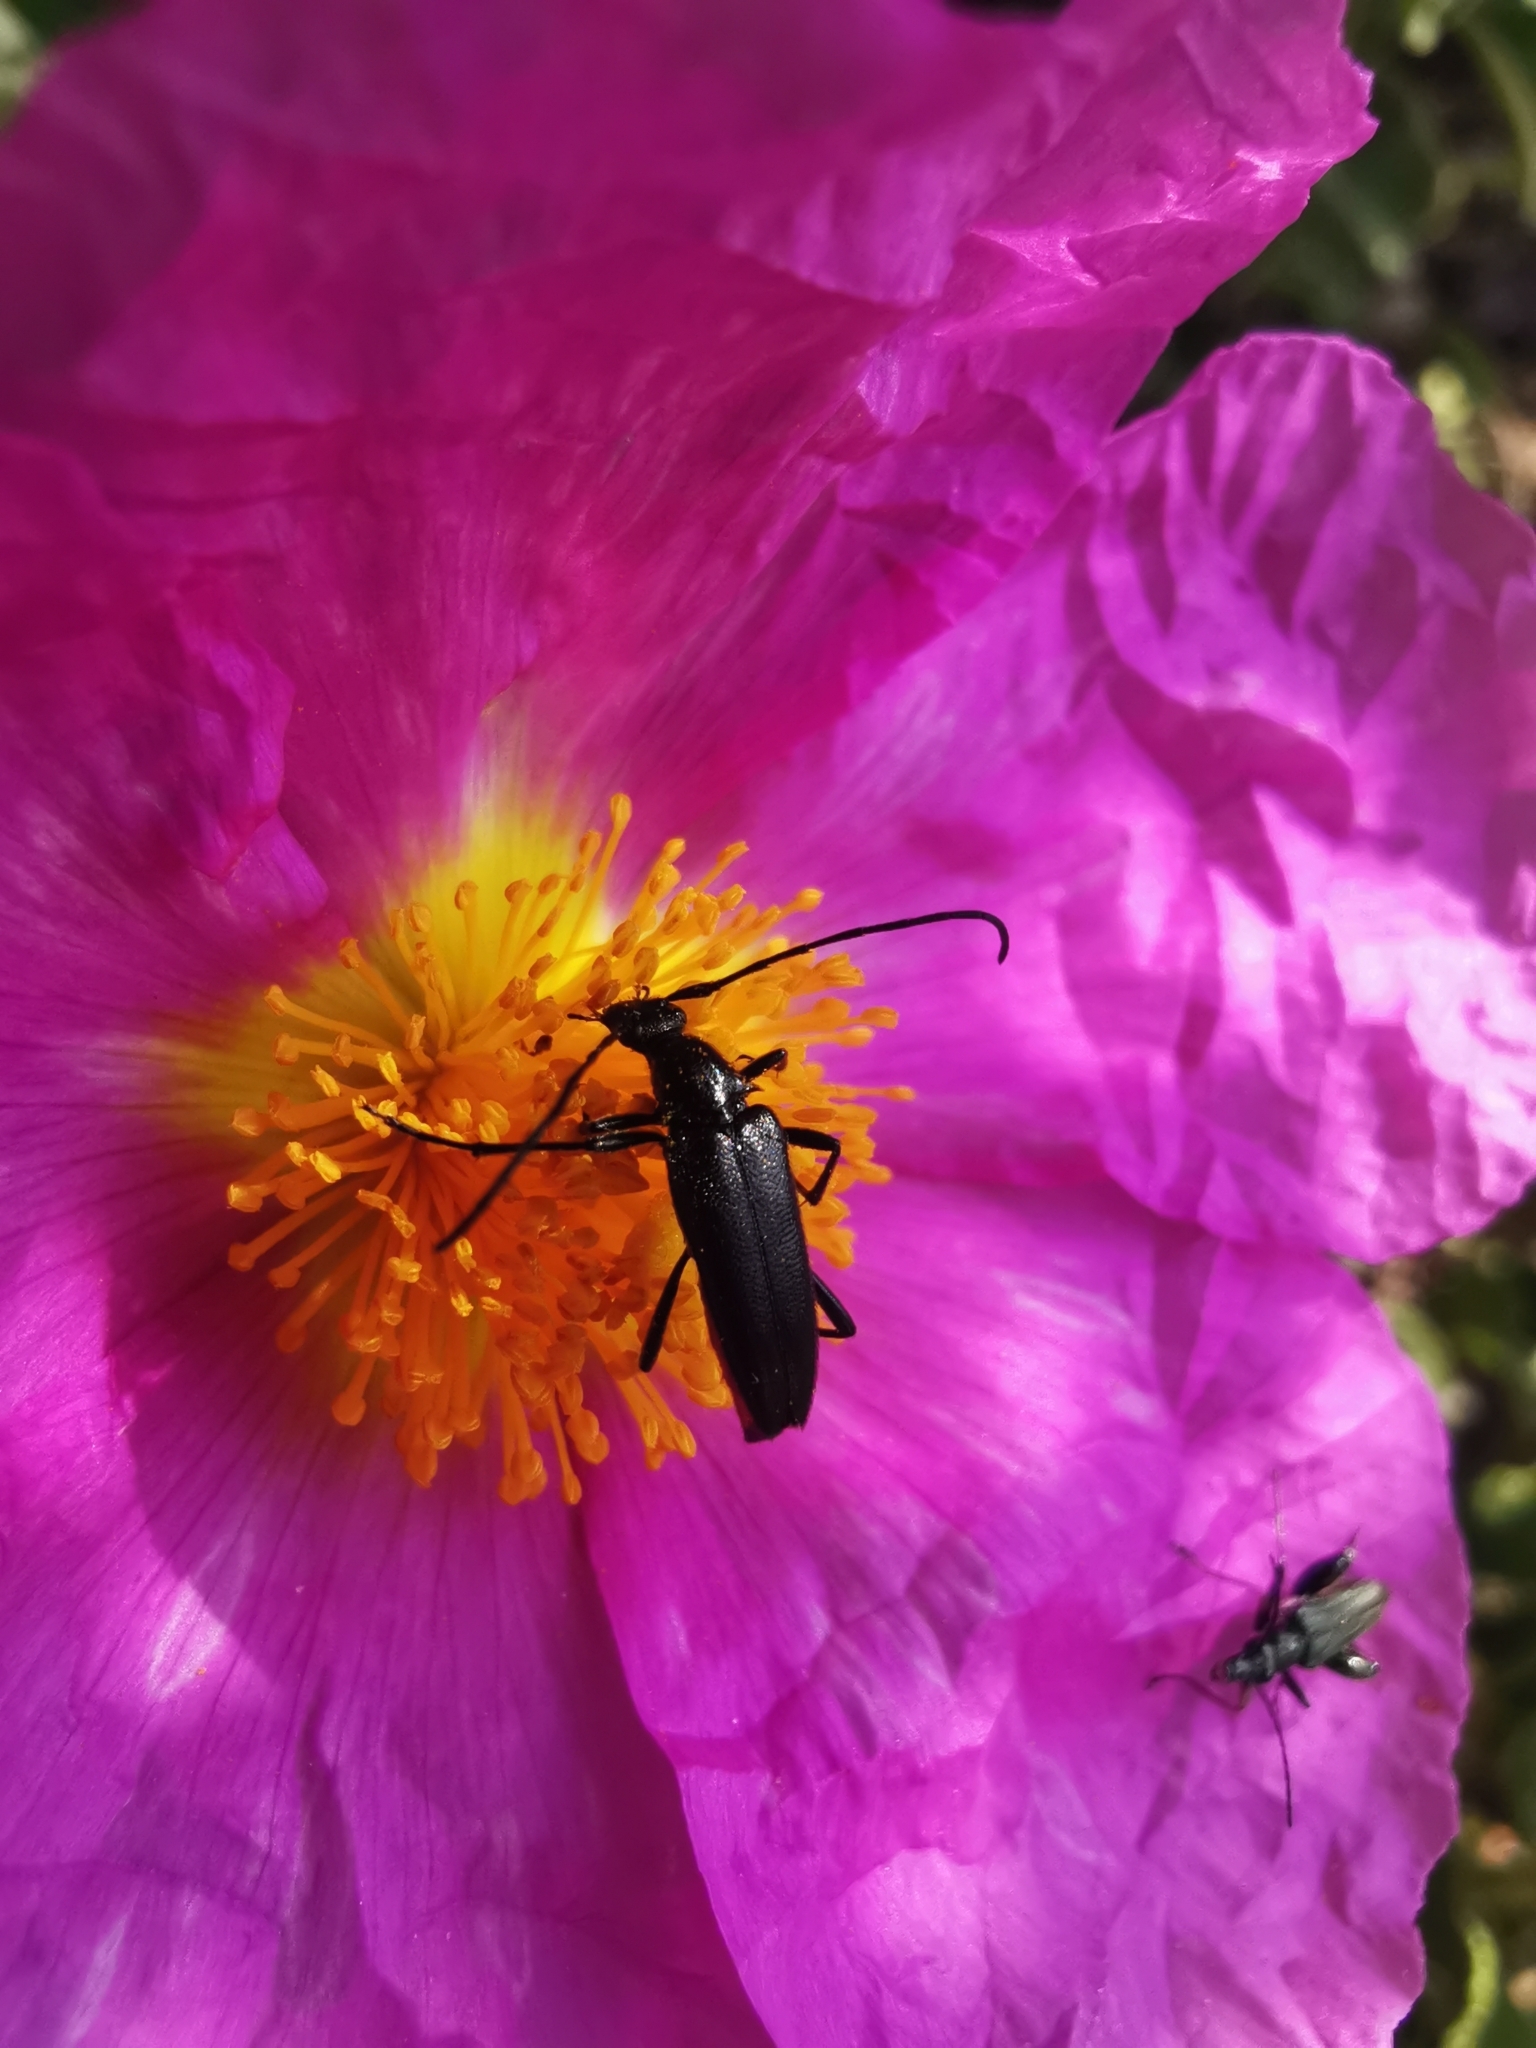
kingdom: Animalia
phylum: Arthropoda
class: Insecta
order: Coleoptera
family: Cerambycidae
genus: Stenurella
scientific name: Stenurella nigra
